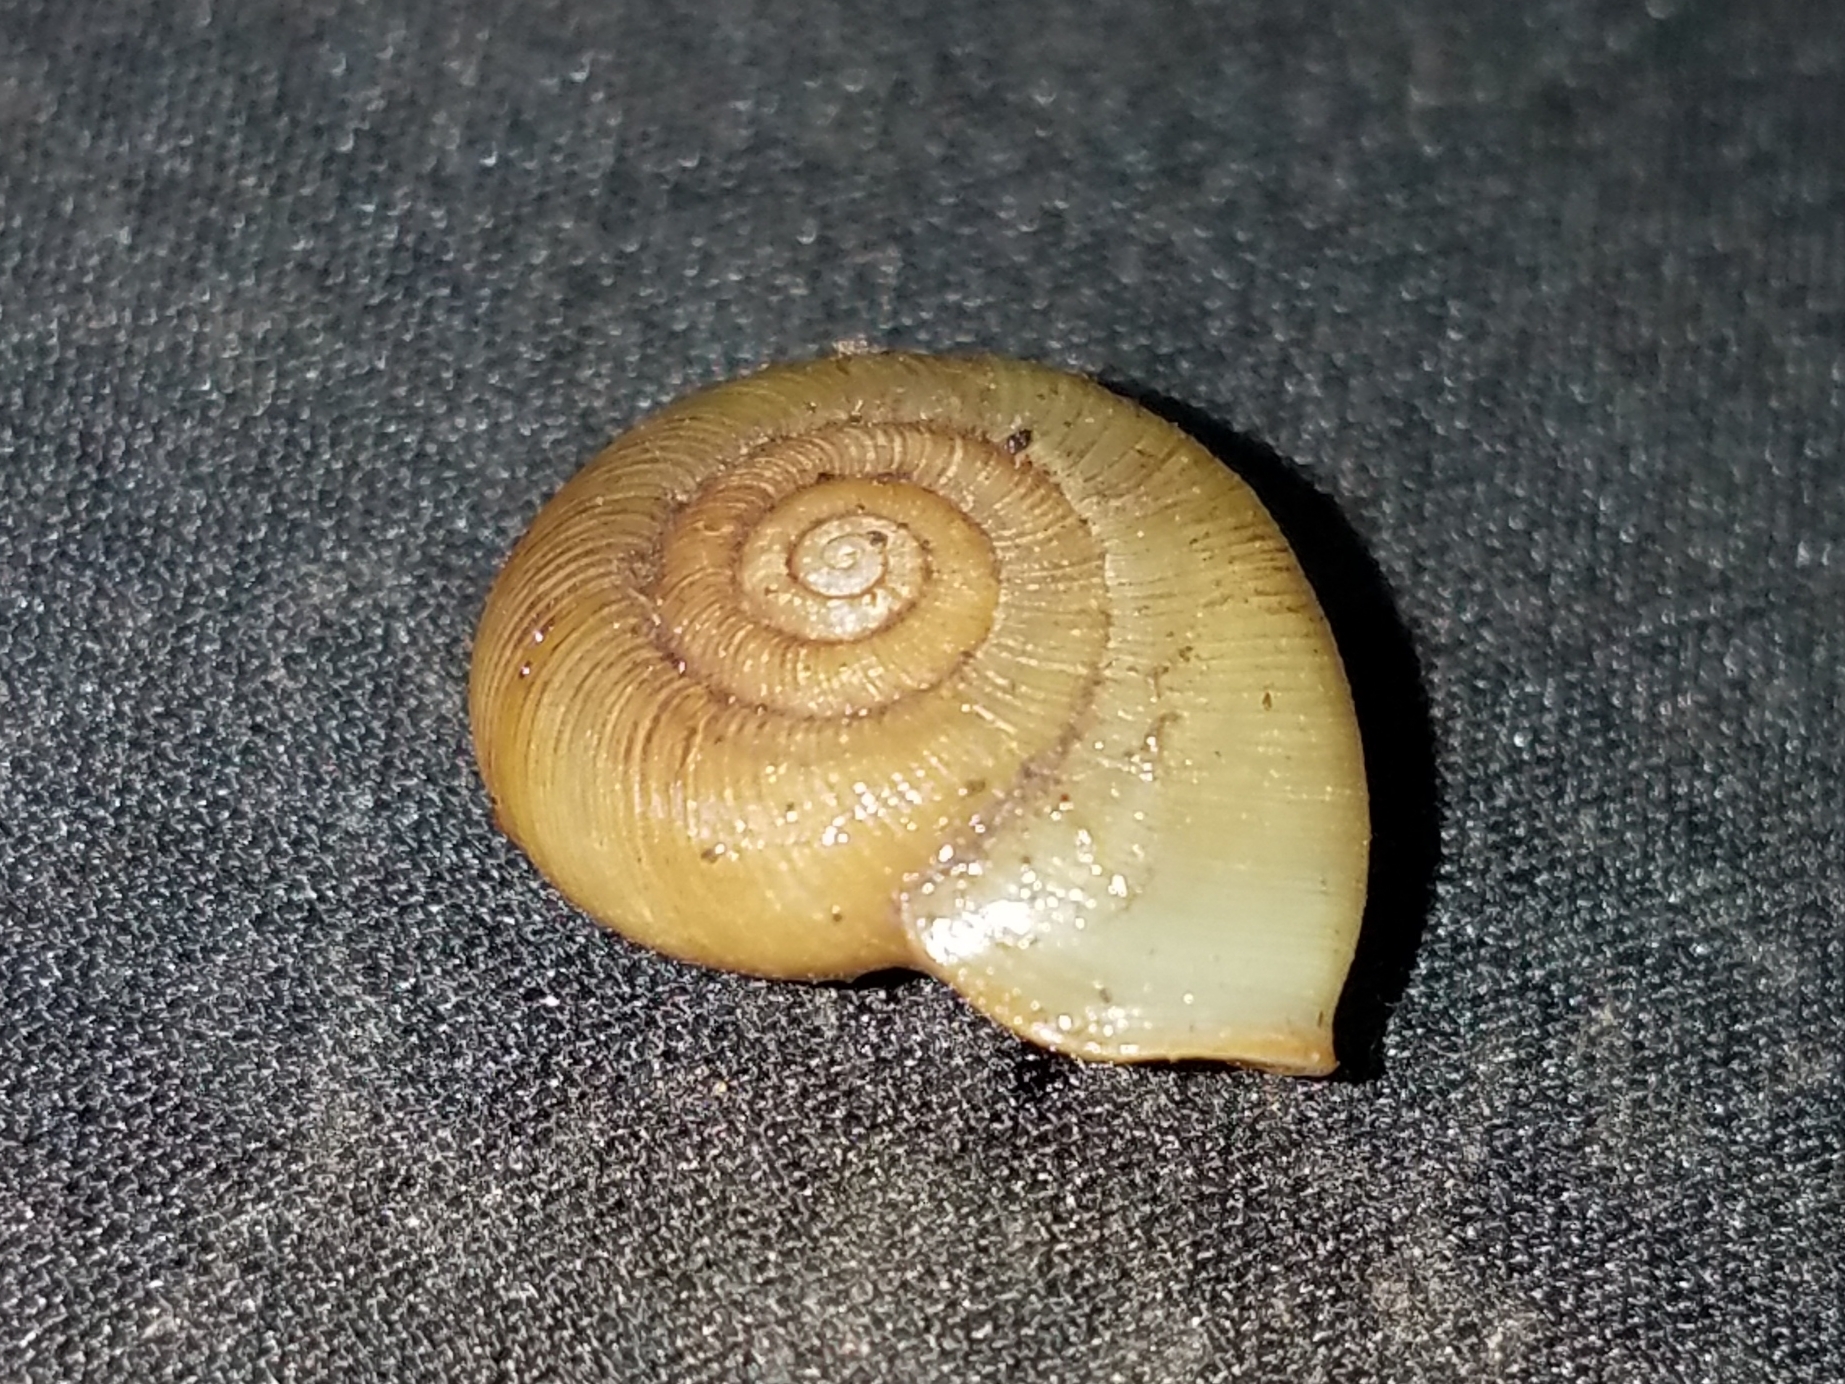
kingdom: Animalia
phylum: Mollusca
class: Gastropoda
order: Stylommatophora
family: Haplotrematidae
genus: Ancotrema
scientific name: Ancotrema sportella
